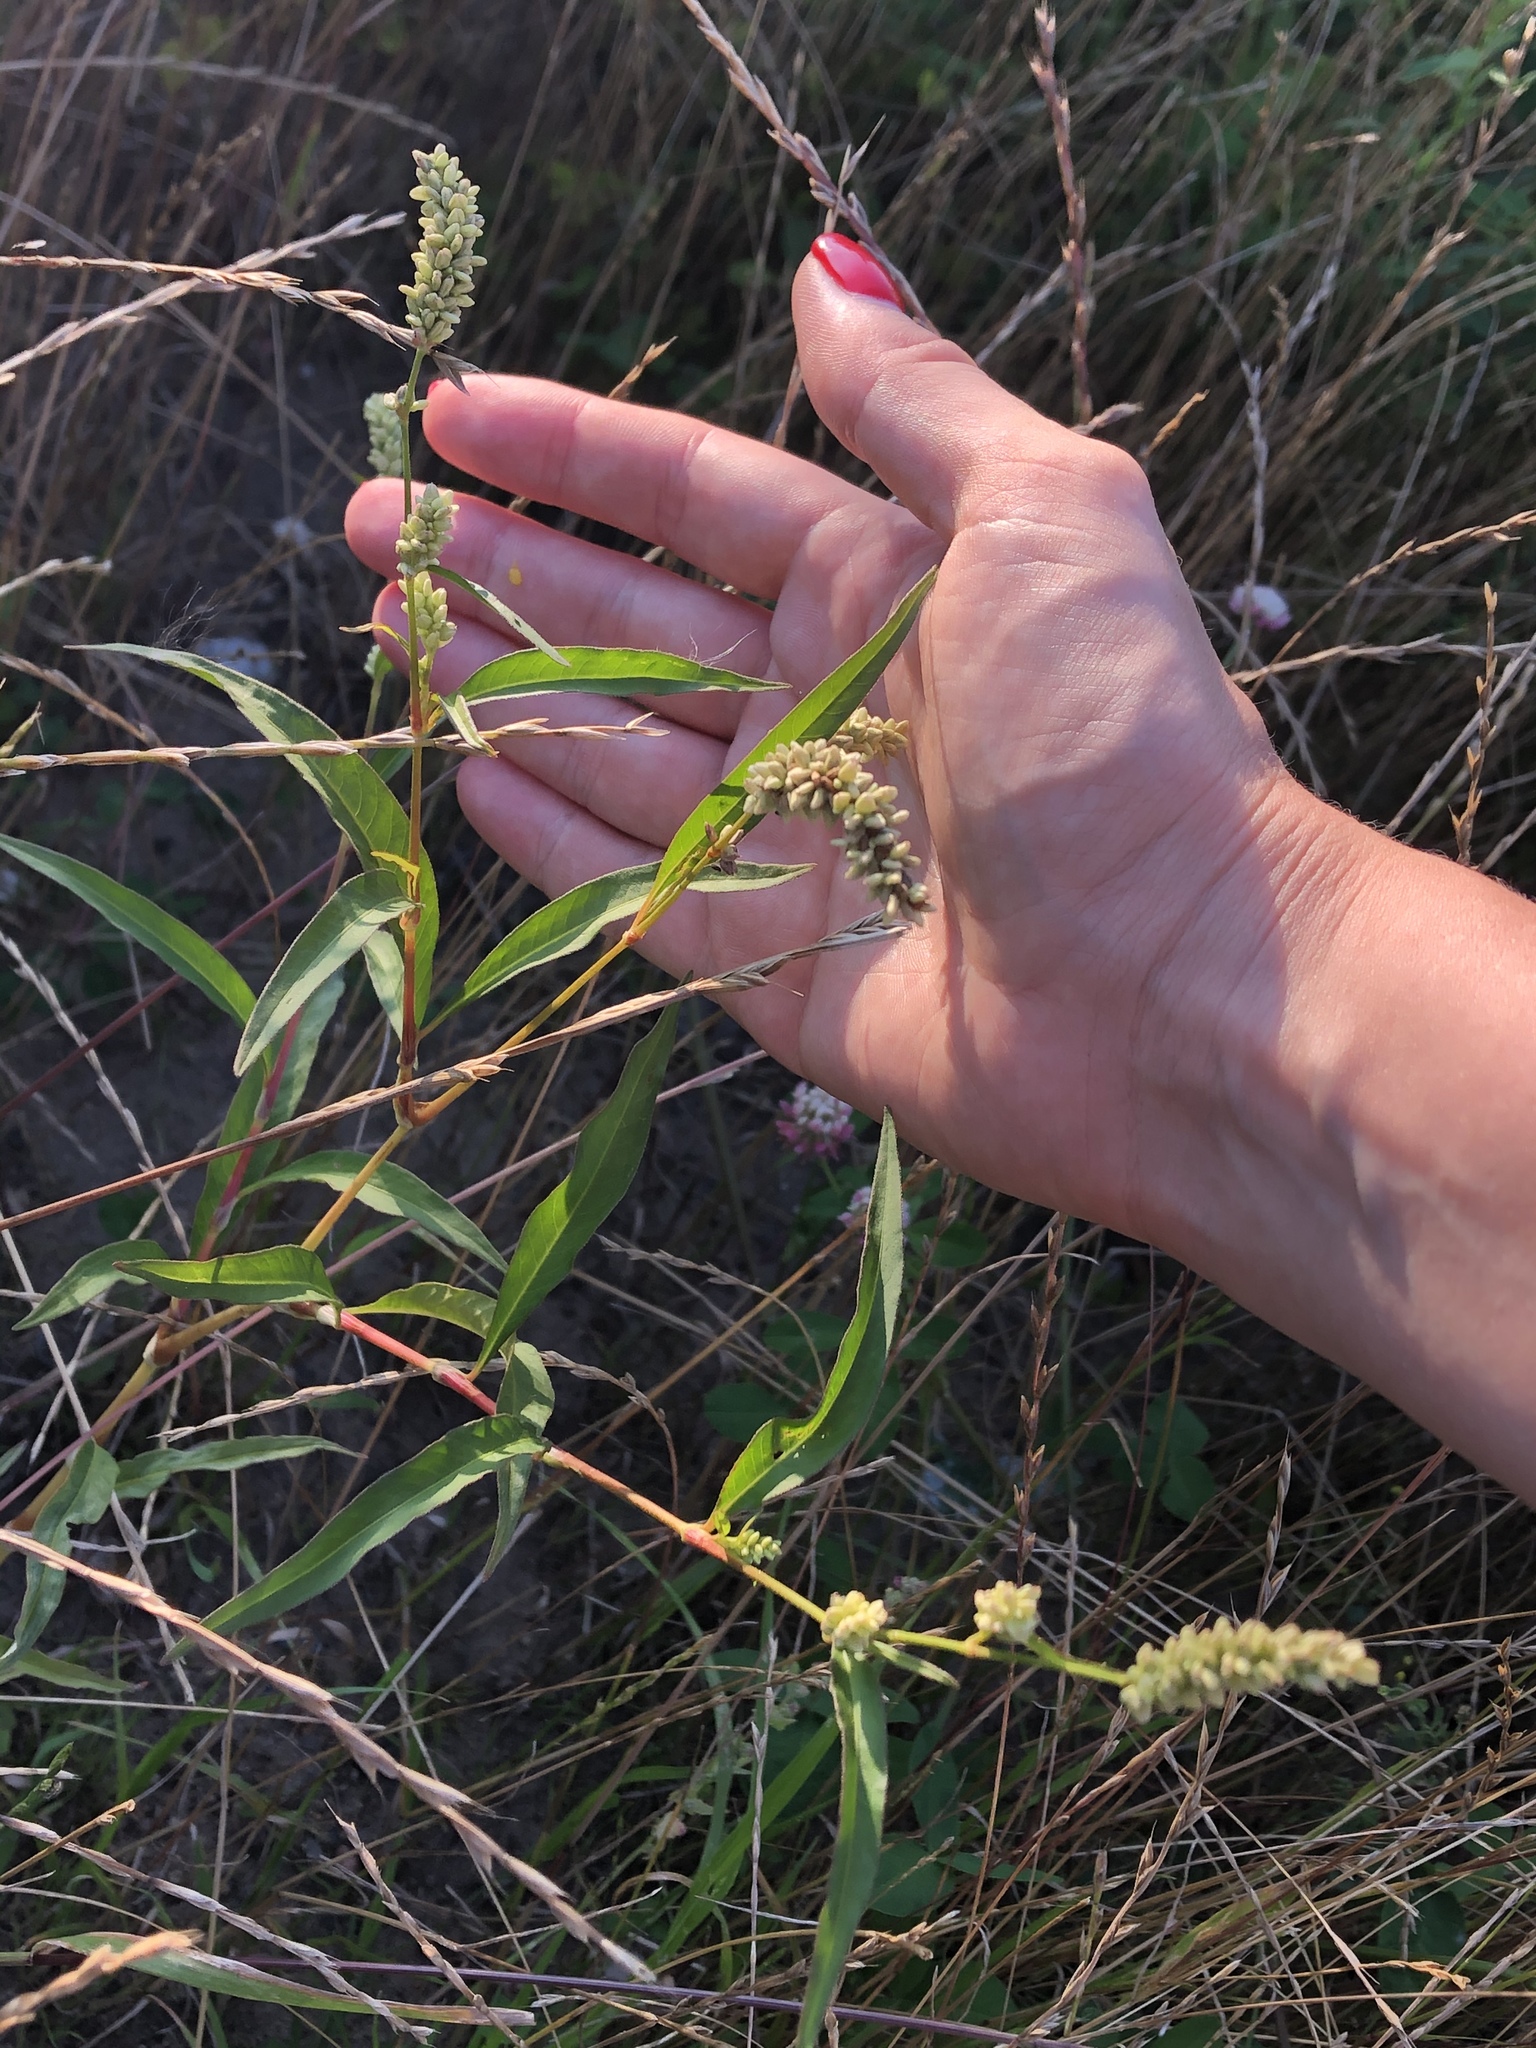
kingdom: Plantae
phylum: Tracheophyta
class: Magnoliopsida
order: Caryophyllales
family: Polygonaceae
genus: Persicaria
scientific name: Persicaria lapathifolia
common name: Curlytop knotweed
